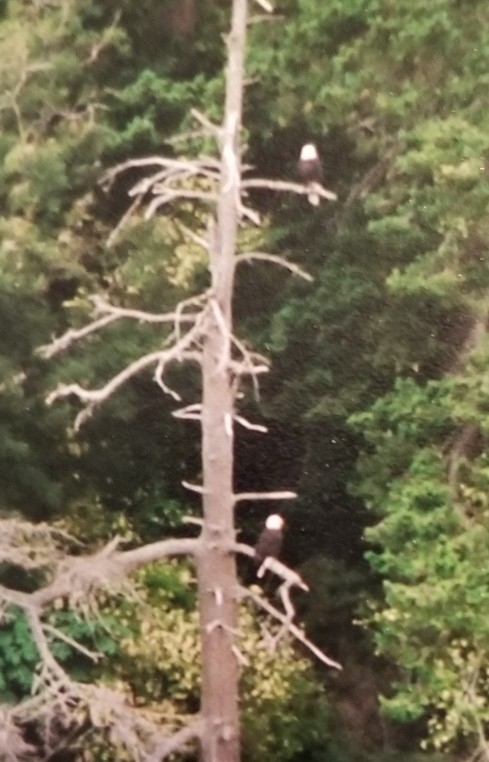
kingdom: Animalia
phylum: Chordata
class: Aves
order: Accipitriformes
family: Accipitridae
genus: Haliaeetus
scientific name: Haliaeetus leucocephalus
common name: Bald eagle
